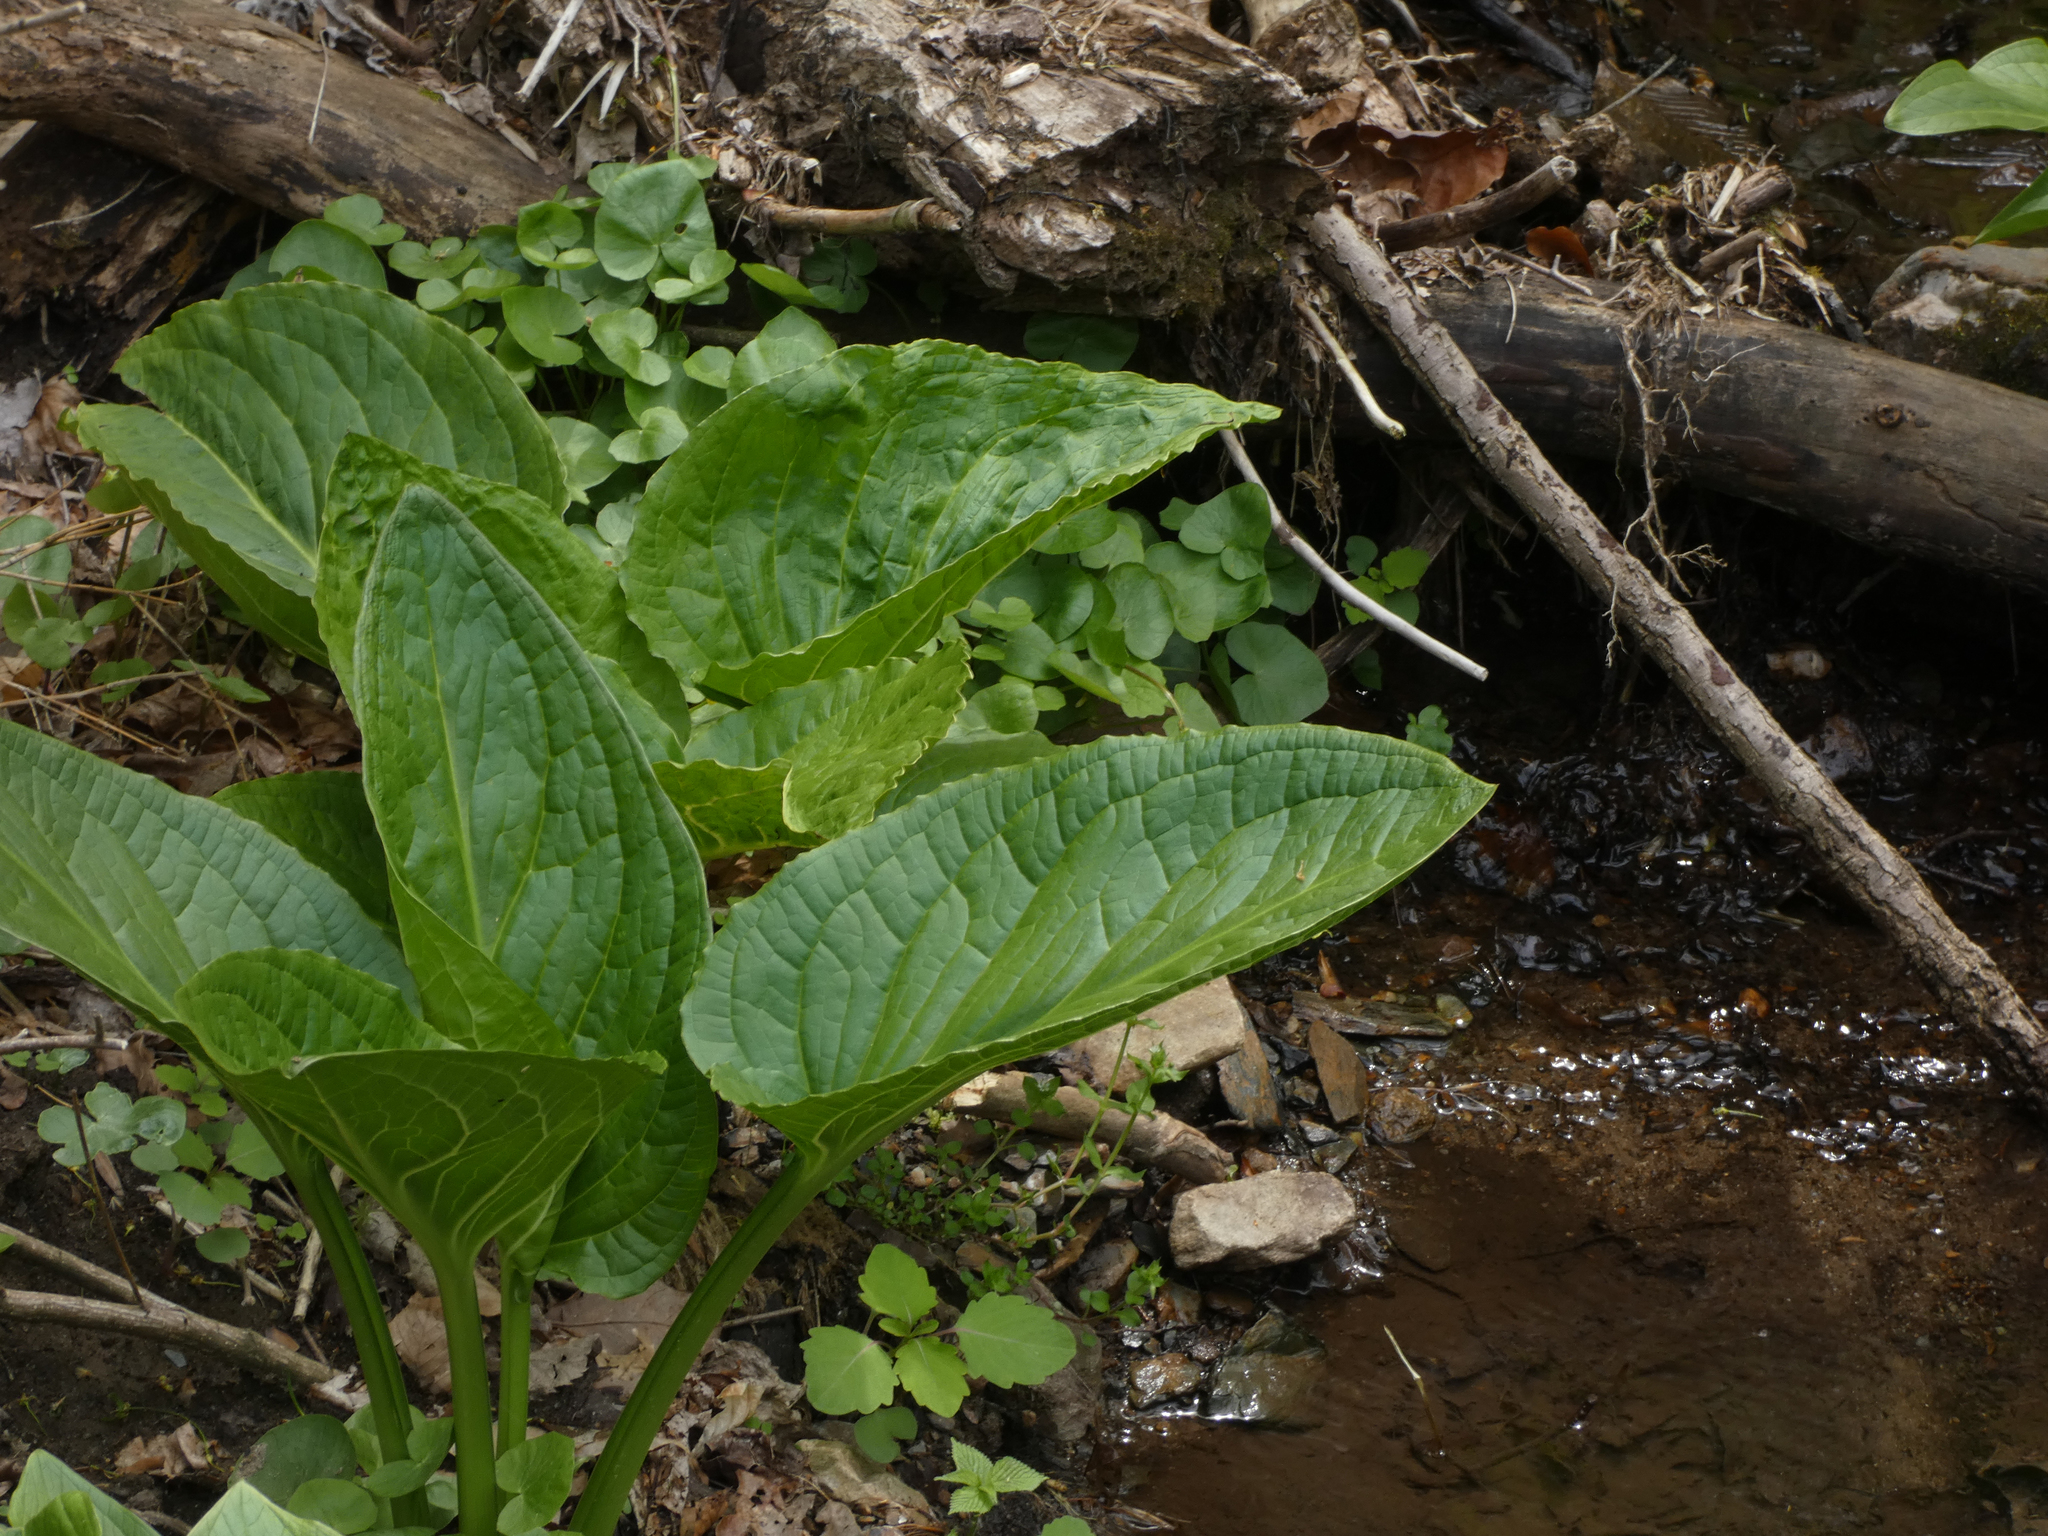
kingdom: Plantae
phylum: Tracheophyta
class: Liliopsida
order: Alismatales
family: Araceae
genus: Symplocarpus
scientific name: Symplocarpus foetidus
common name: Eastern skunk cabbage
